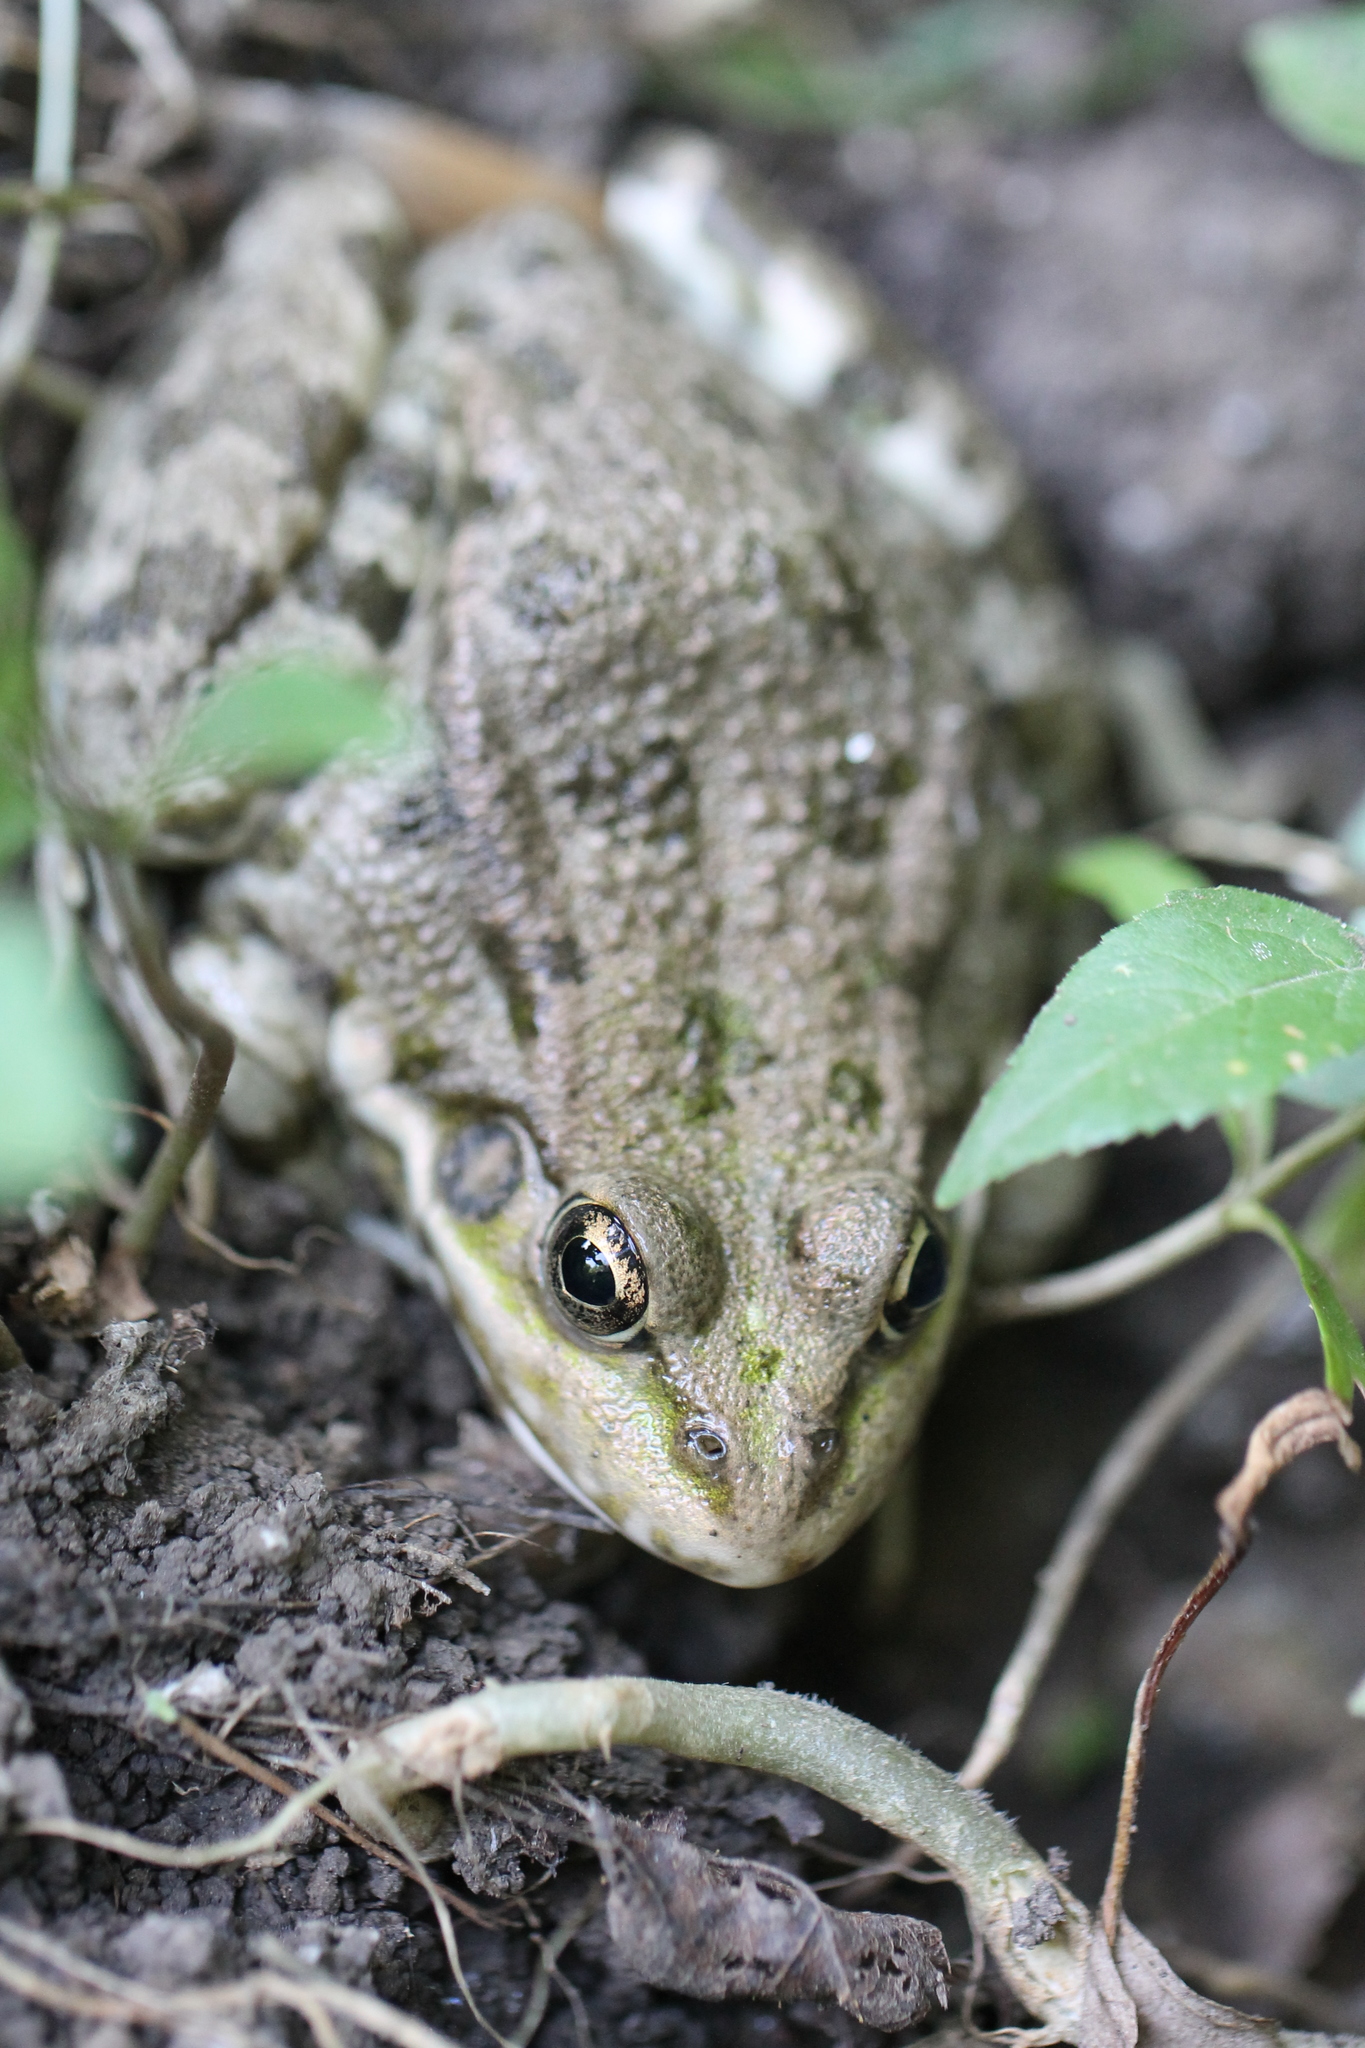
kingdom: Animalia
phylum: Chordata
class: Amphibia
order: Anura
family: Ranidae
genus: Pelophylax
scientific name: Pelophylax ridibundus
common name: Marsh frog
